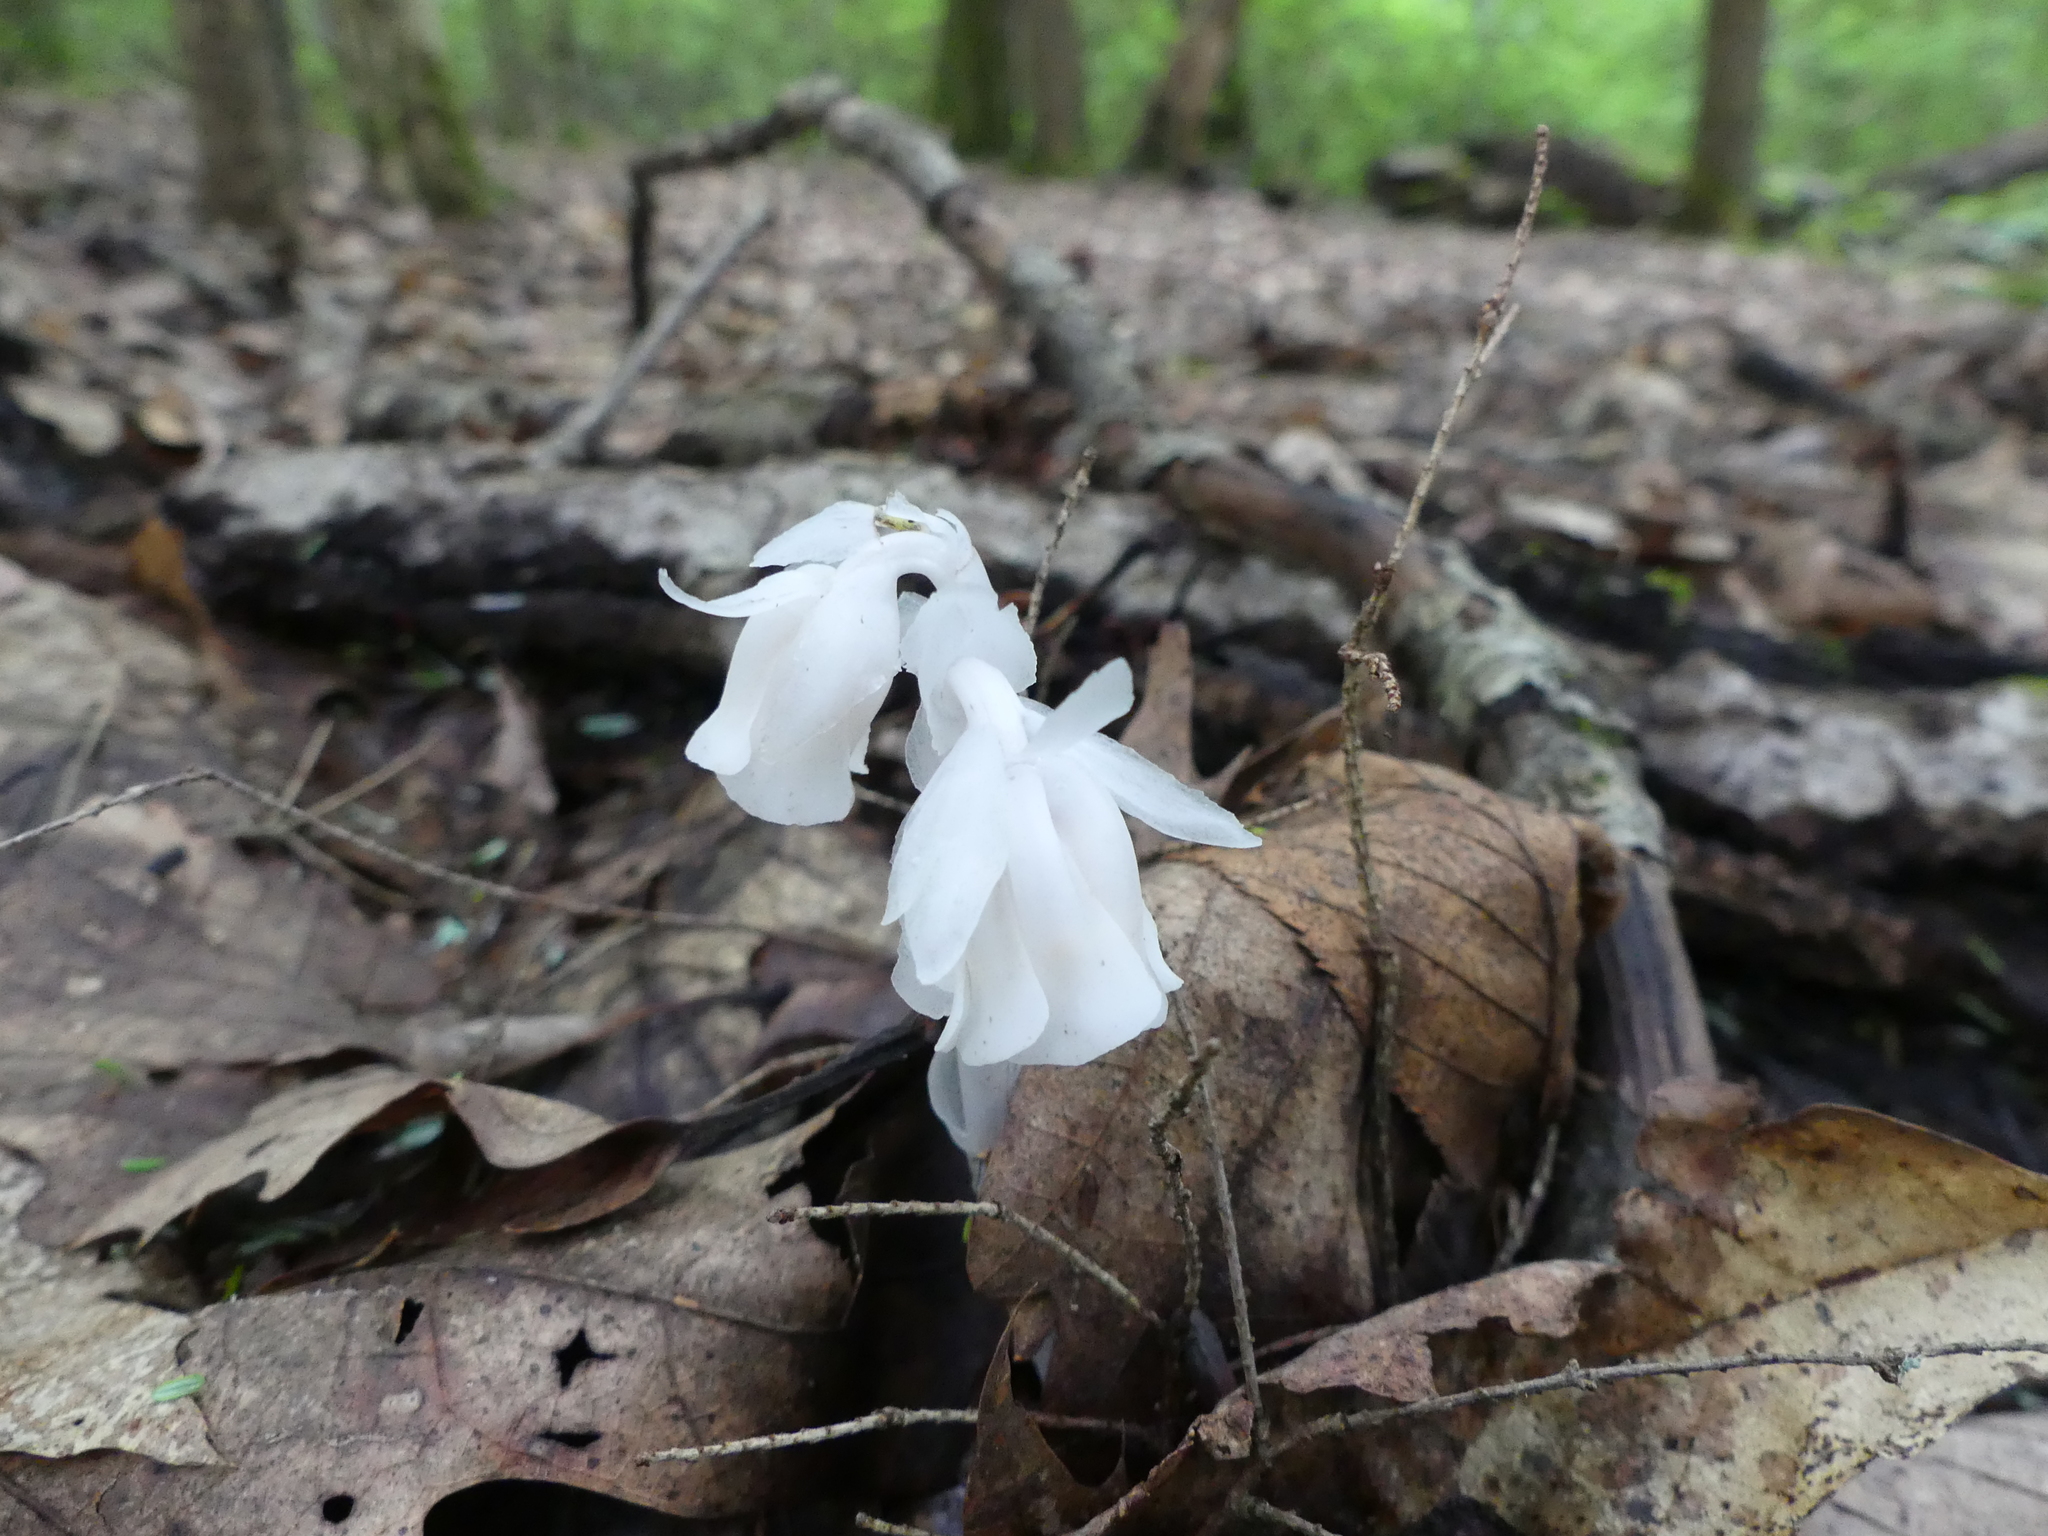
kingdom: Plantae
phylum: Tracheophyta
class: Magnoliopsida
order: Ericales
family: Ericaceae
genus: Monotropa
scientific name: Monotropa uniflora
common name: Convulsion root
